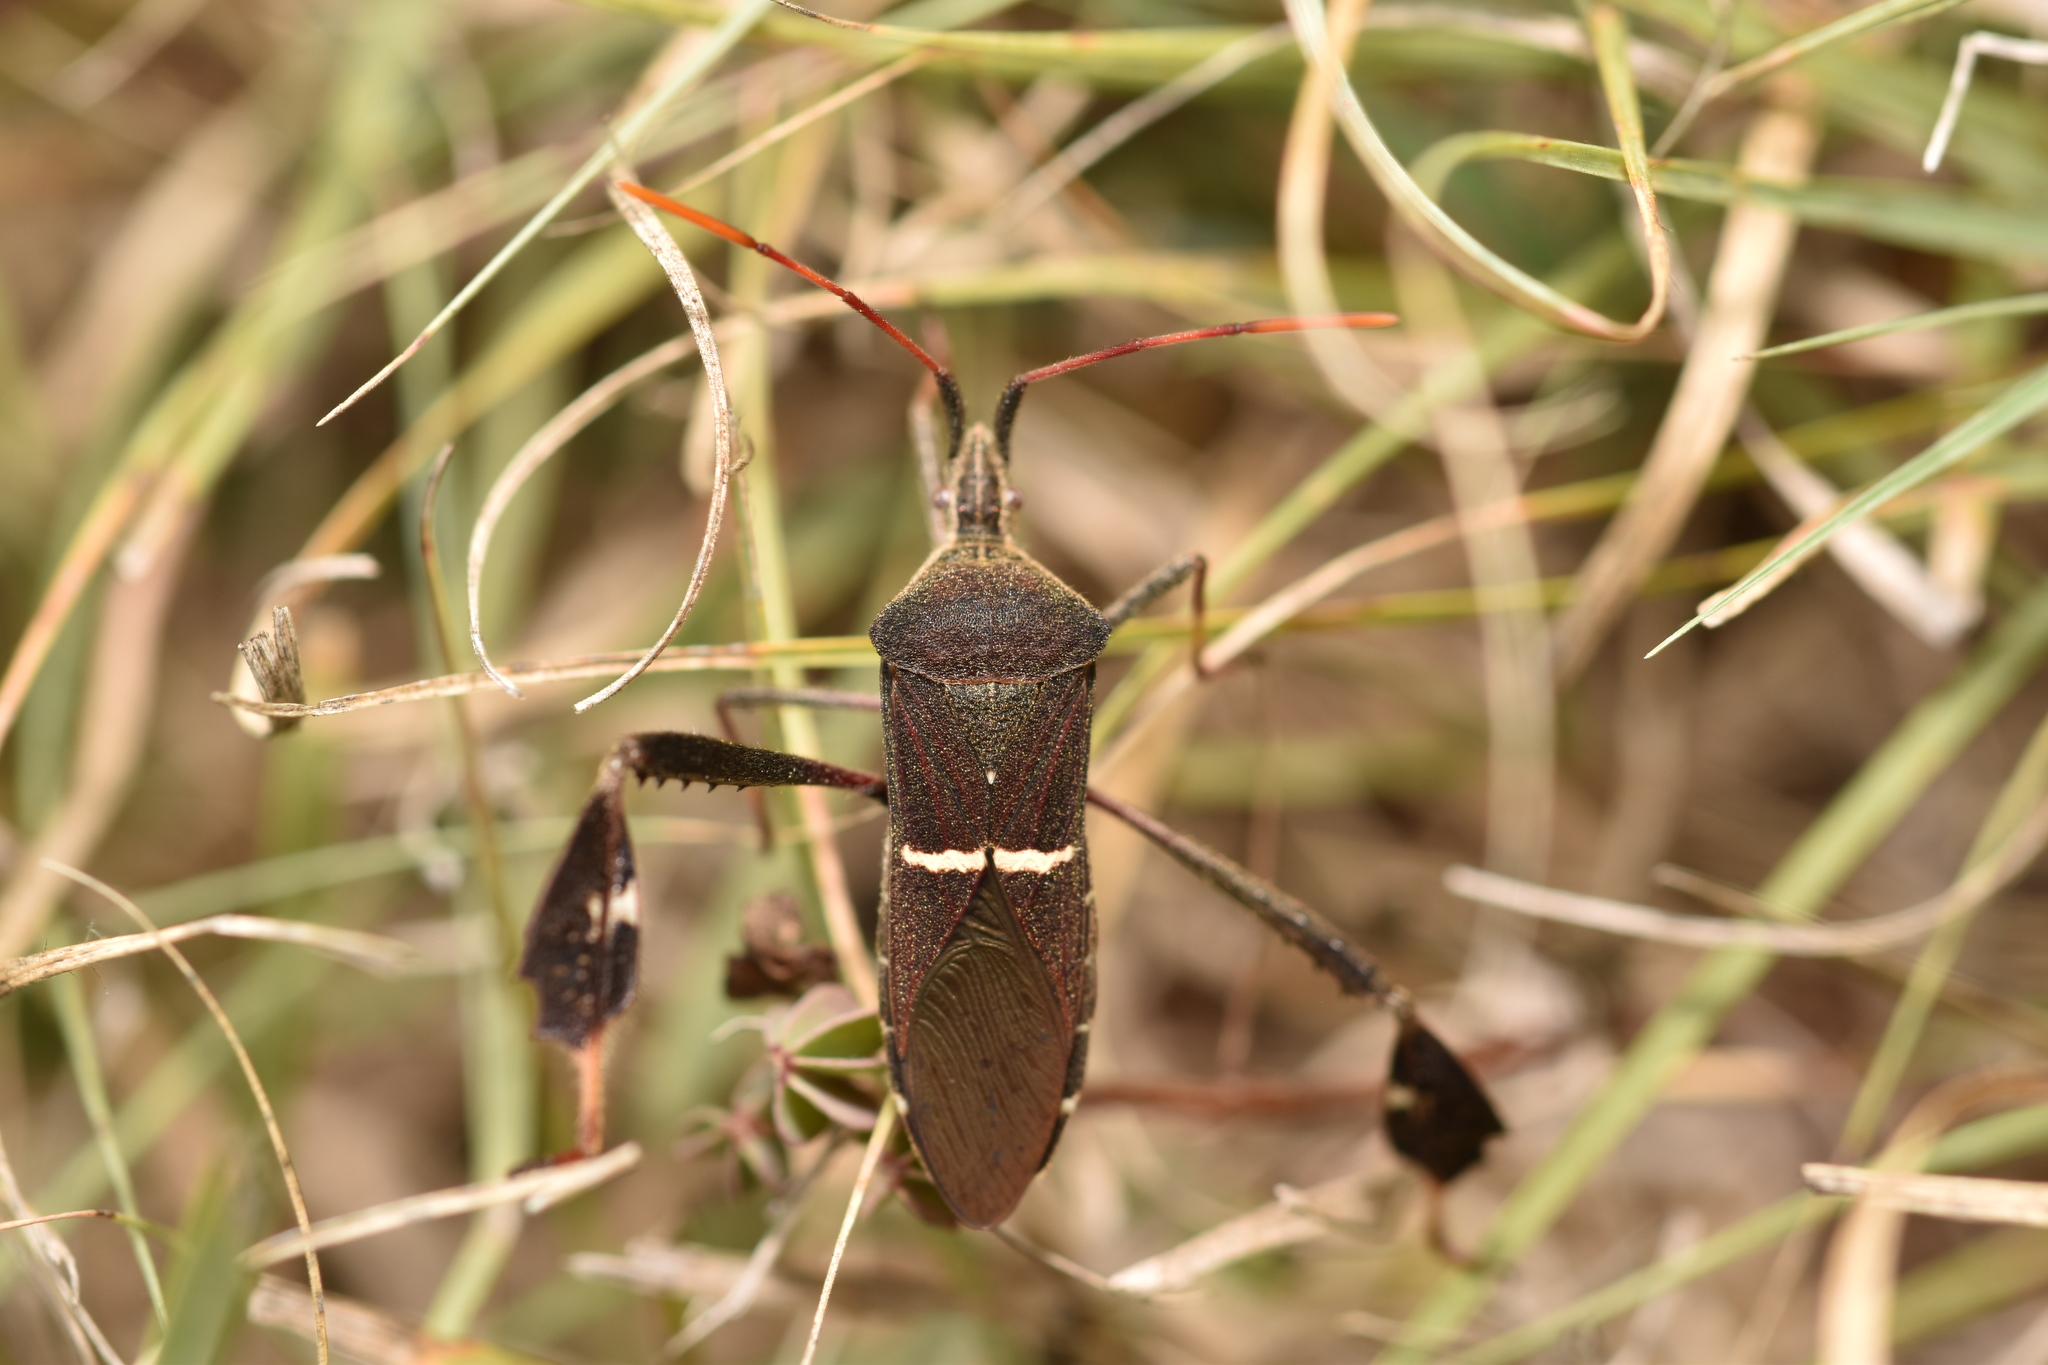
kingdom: Animalia
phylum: Arthropoda
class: Insecta
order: Hemiptera
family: Coreidae
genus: Leptoglossus
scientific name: Leptoglossus phyllopus
